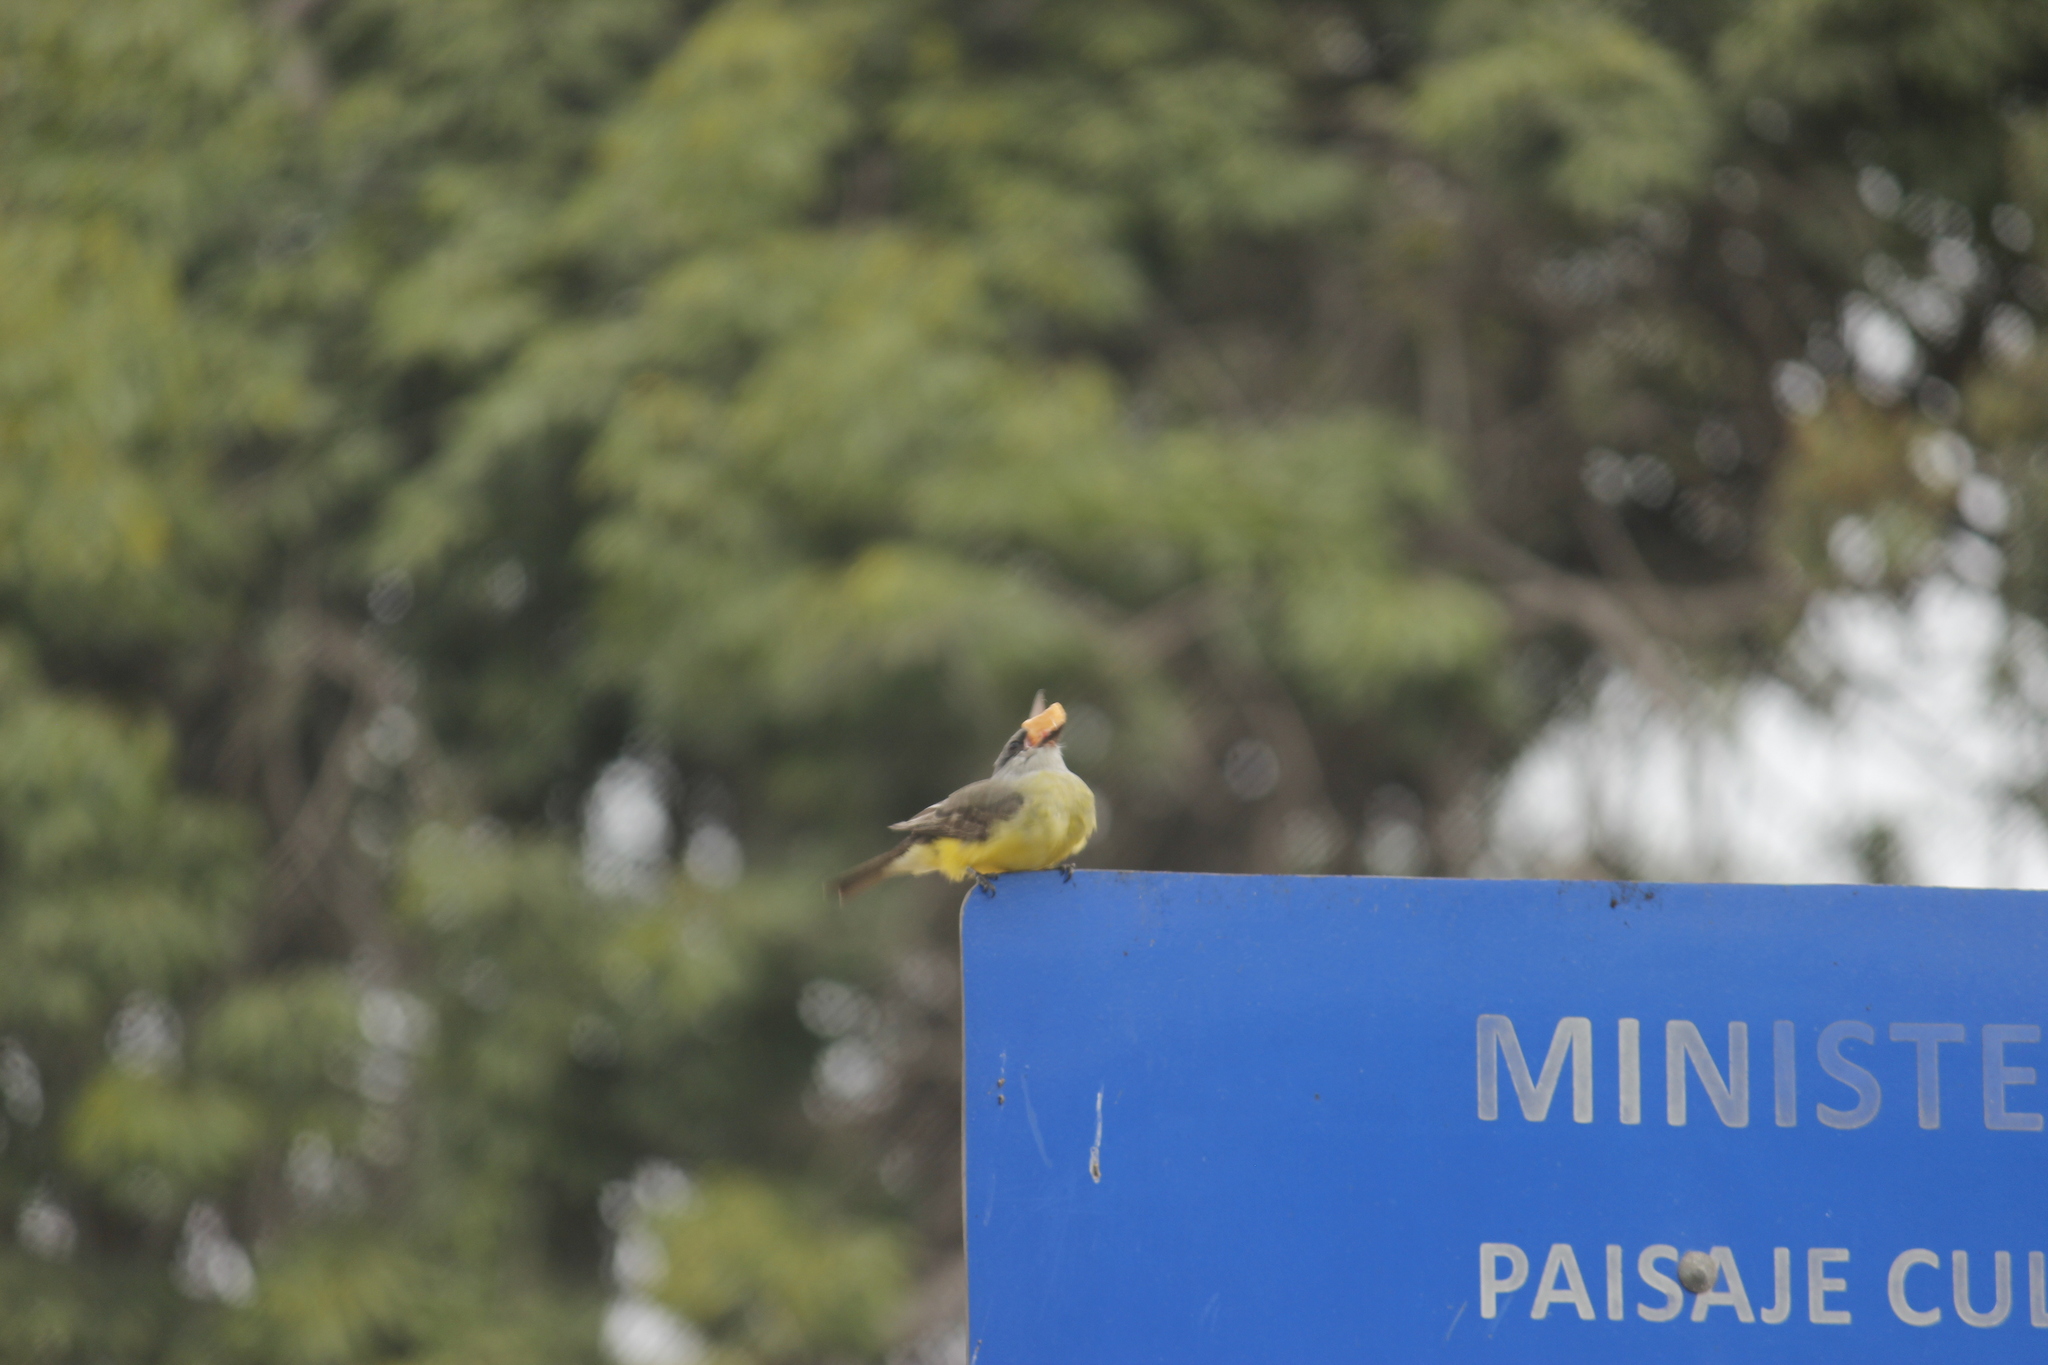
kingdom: Animalia
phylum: Chordata
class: Aves
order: Passeriformes
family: Tyrannidae
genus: Tyrannus
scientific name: Tyrannus melancholicus
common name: Tropical kingbird
